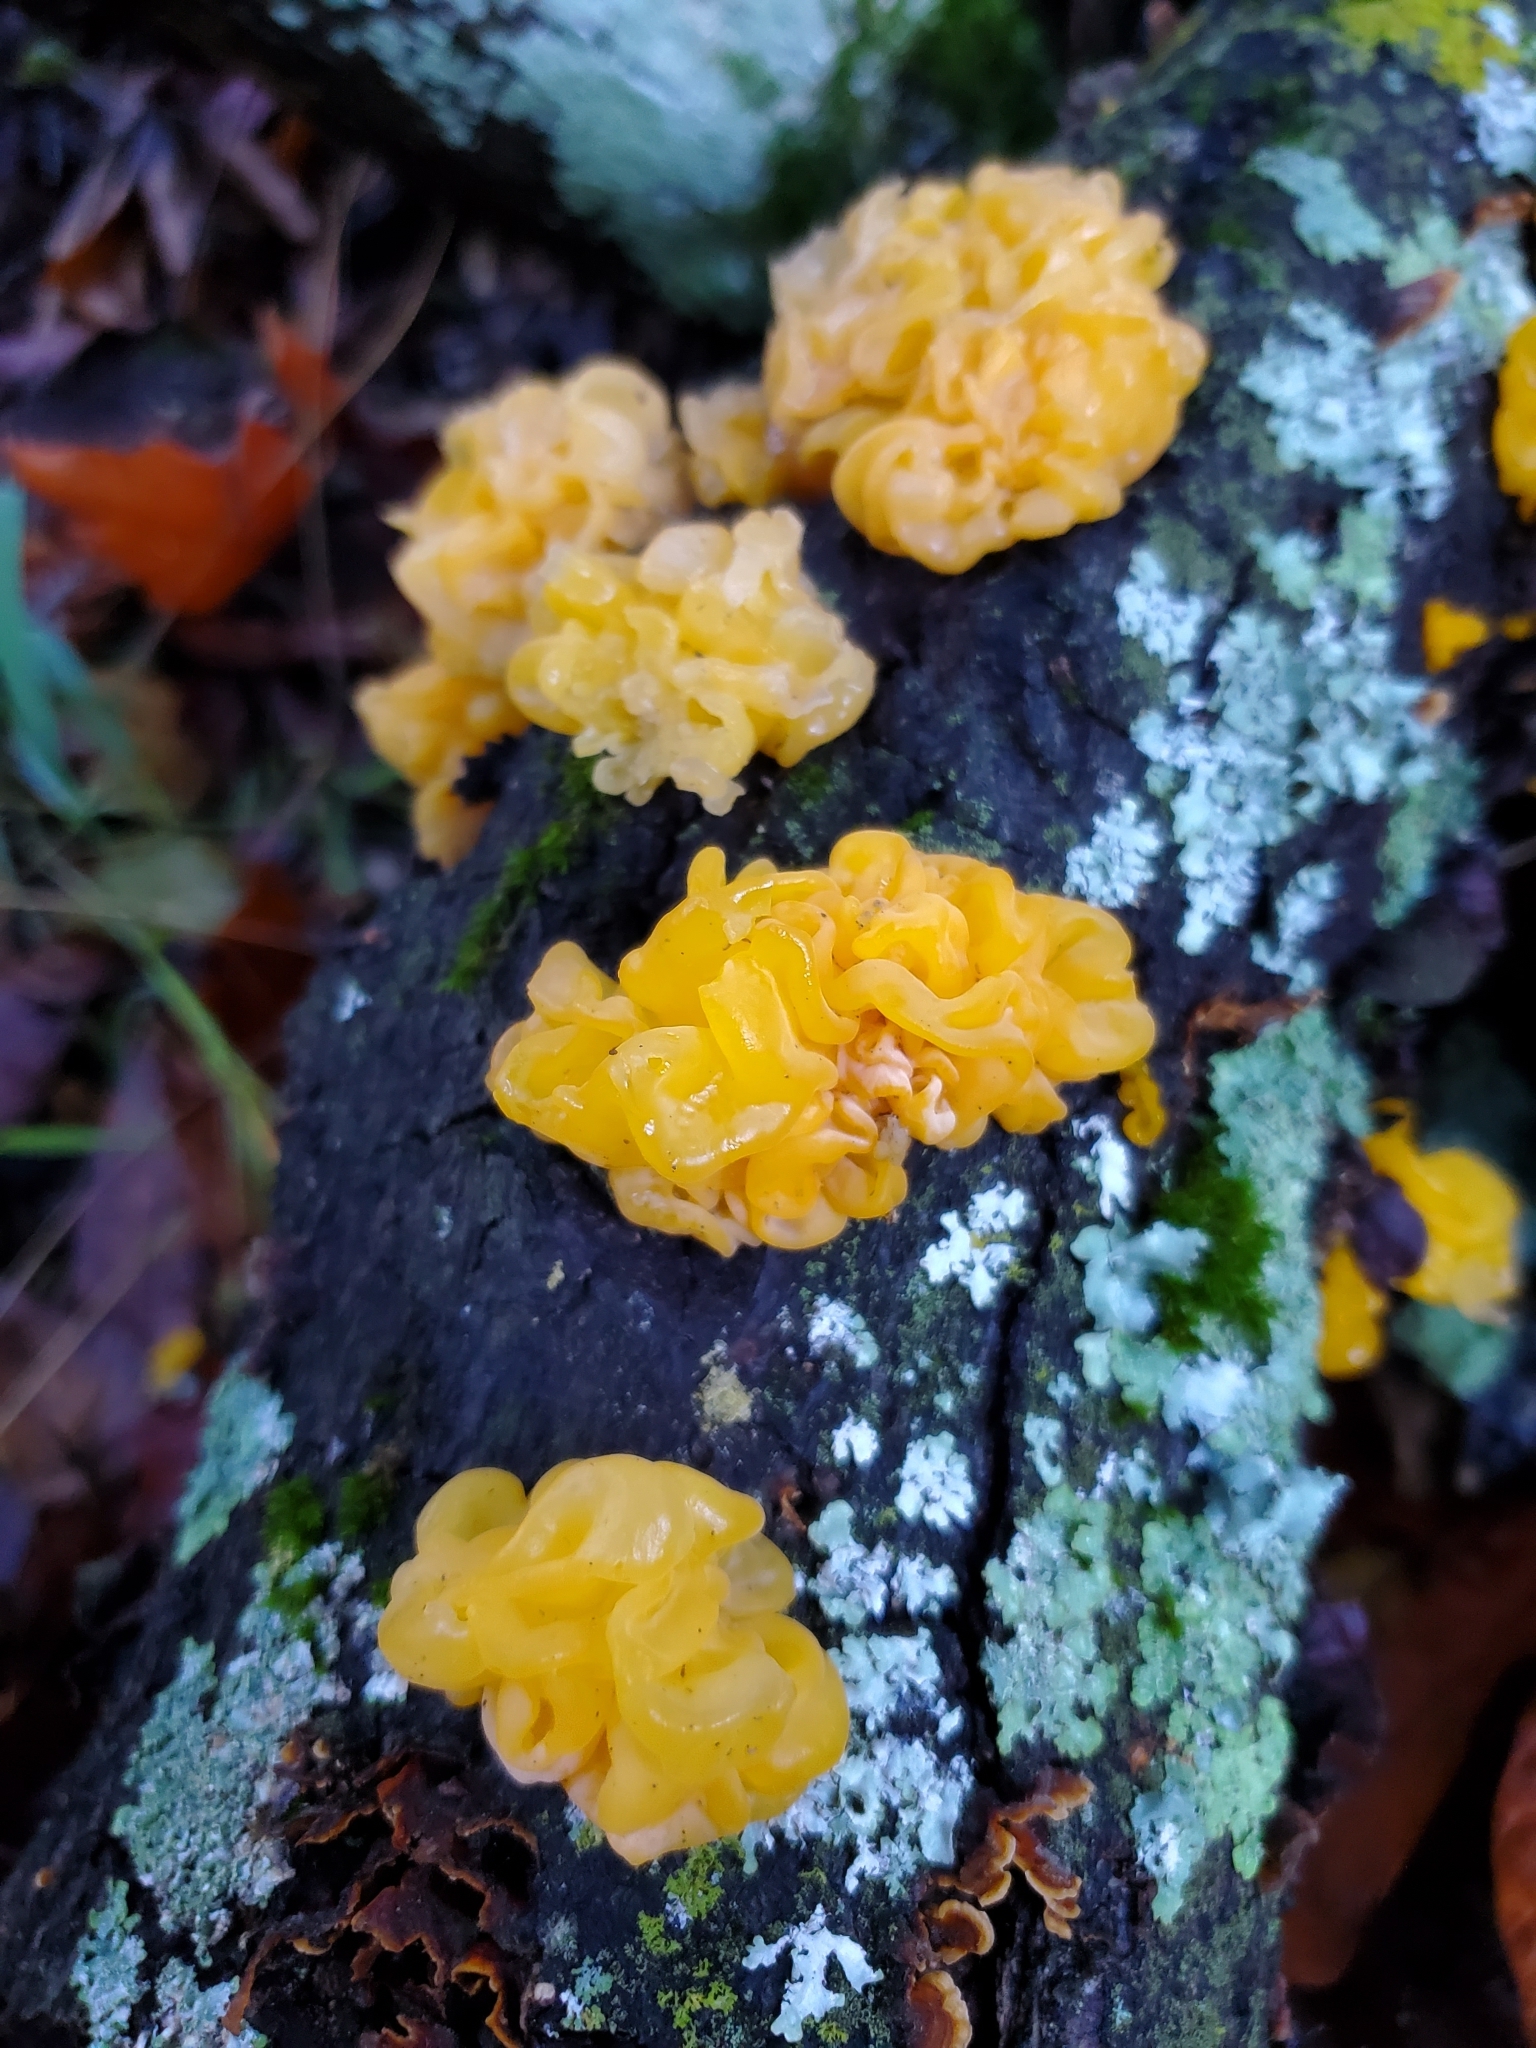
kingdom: Fungi
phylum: Basidiomycota
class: Tremellomycetes
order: Tremellales
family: Naemateliaceae
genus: Naematelia
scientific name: Naematelia aurantia
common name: Golden ear
